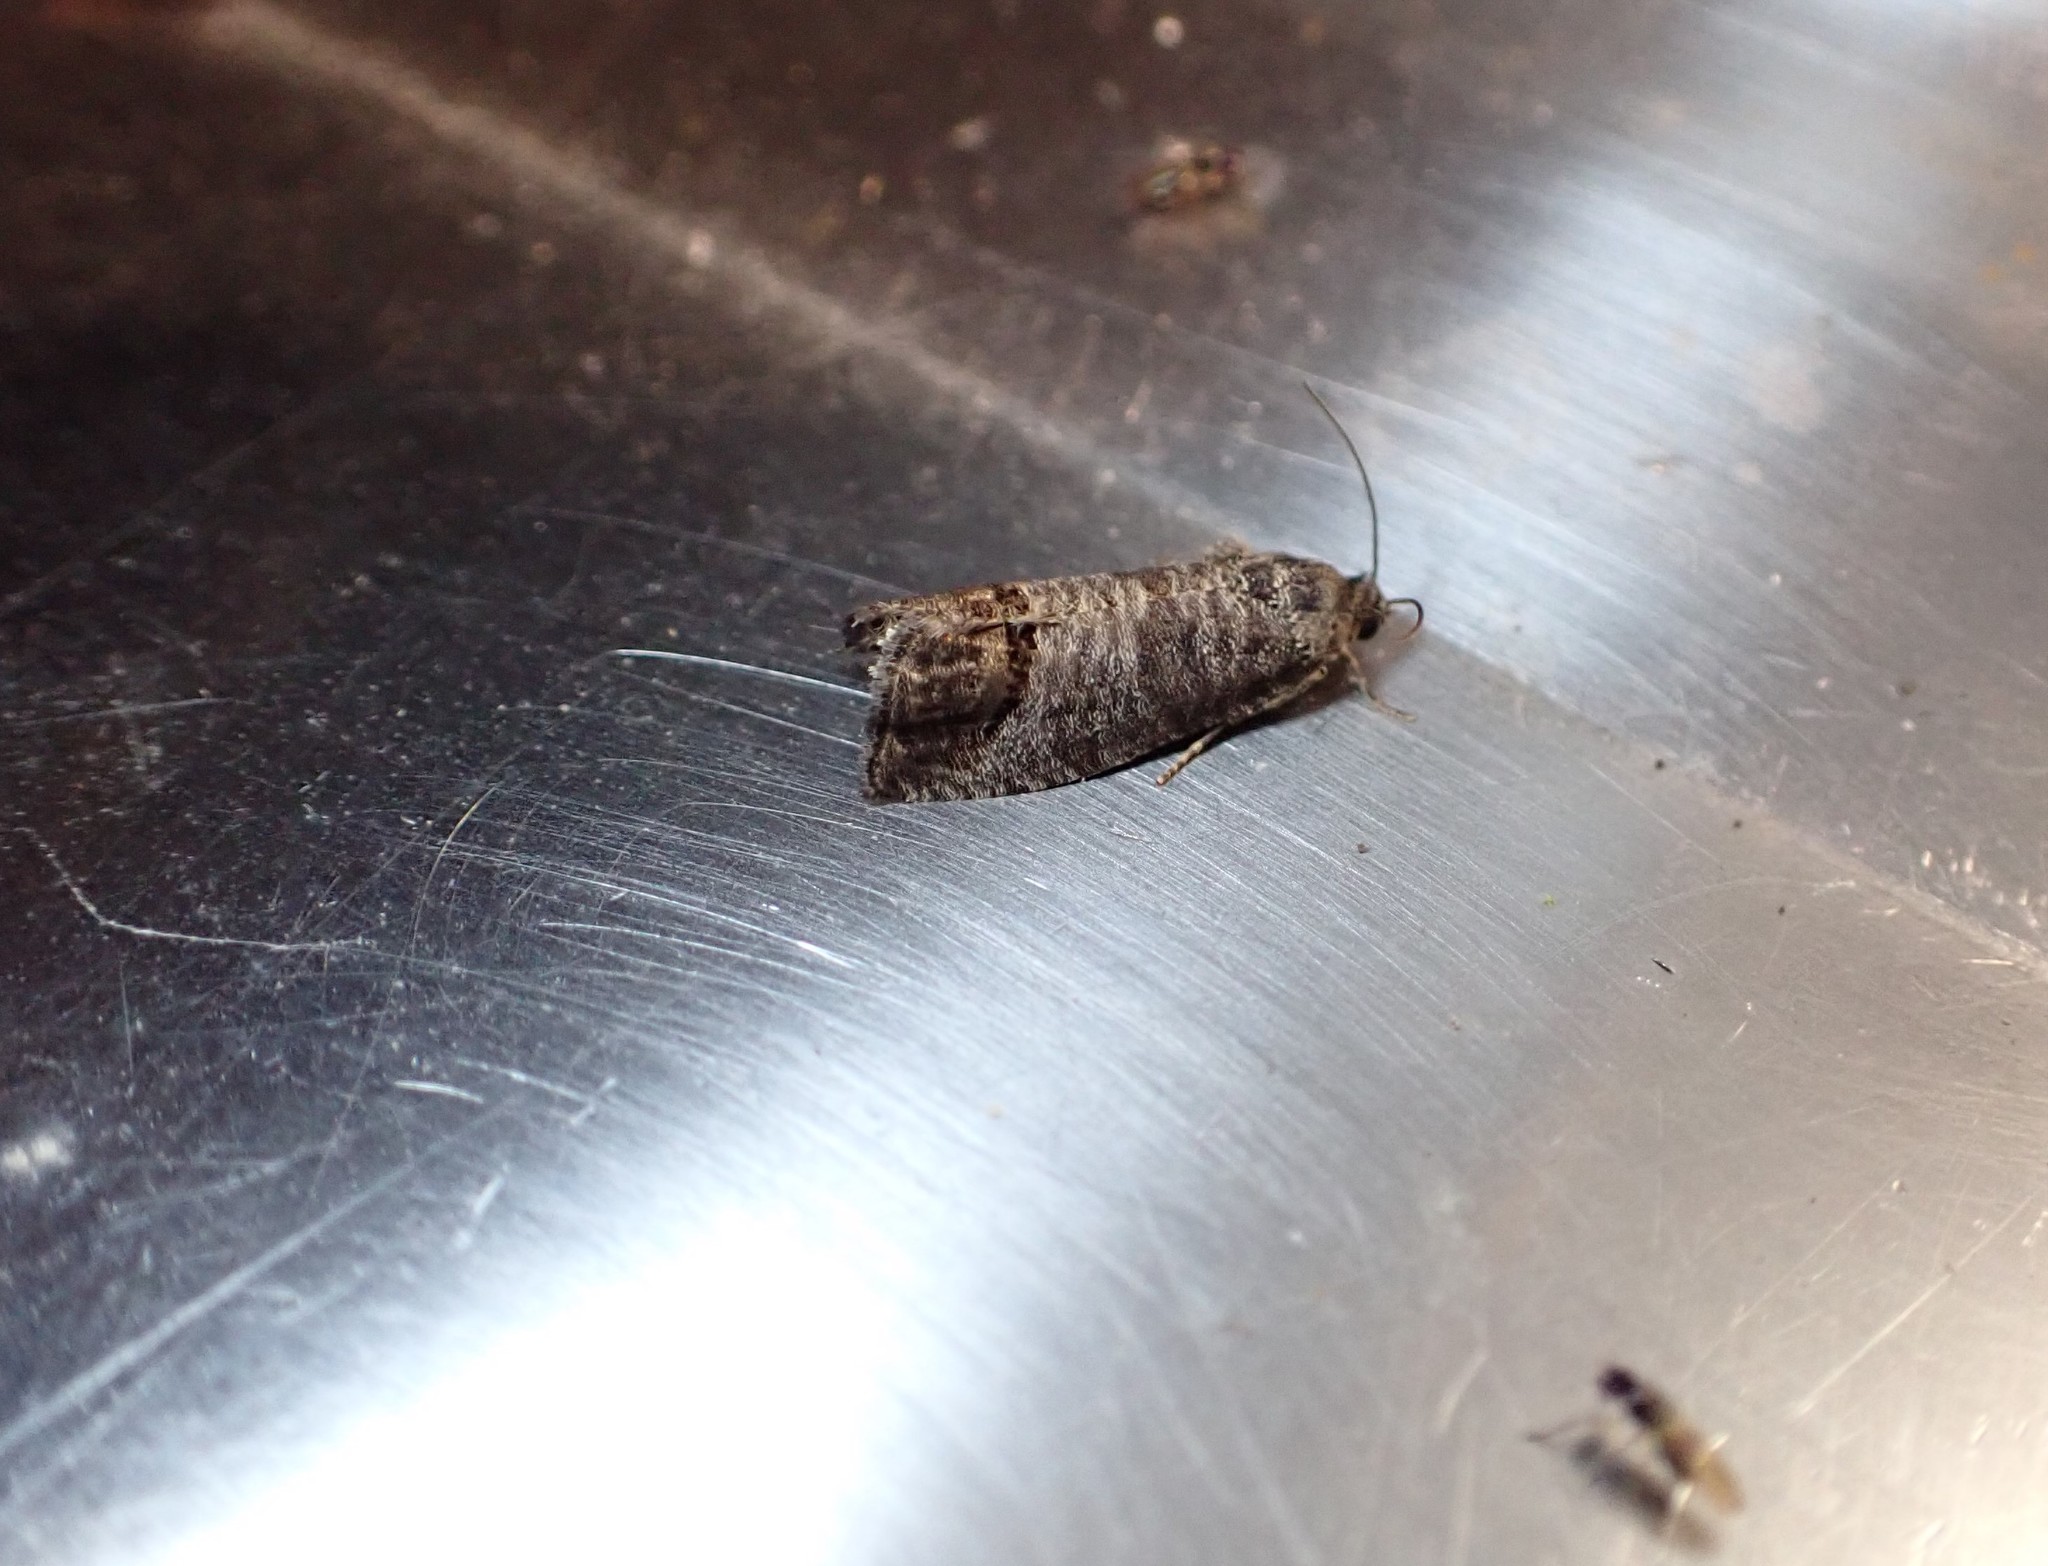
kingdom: Animalia
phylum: Arthropoda
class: Insecta
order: Lepidoptera
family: Tortricidae
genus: Cydia
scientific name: Cydia pomonella
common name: Codling moth
